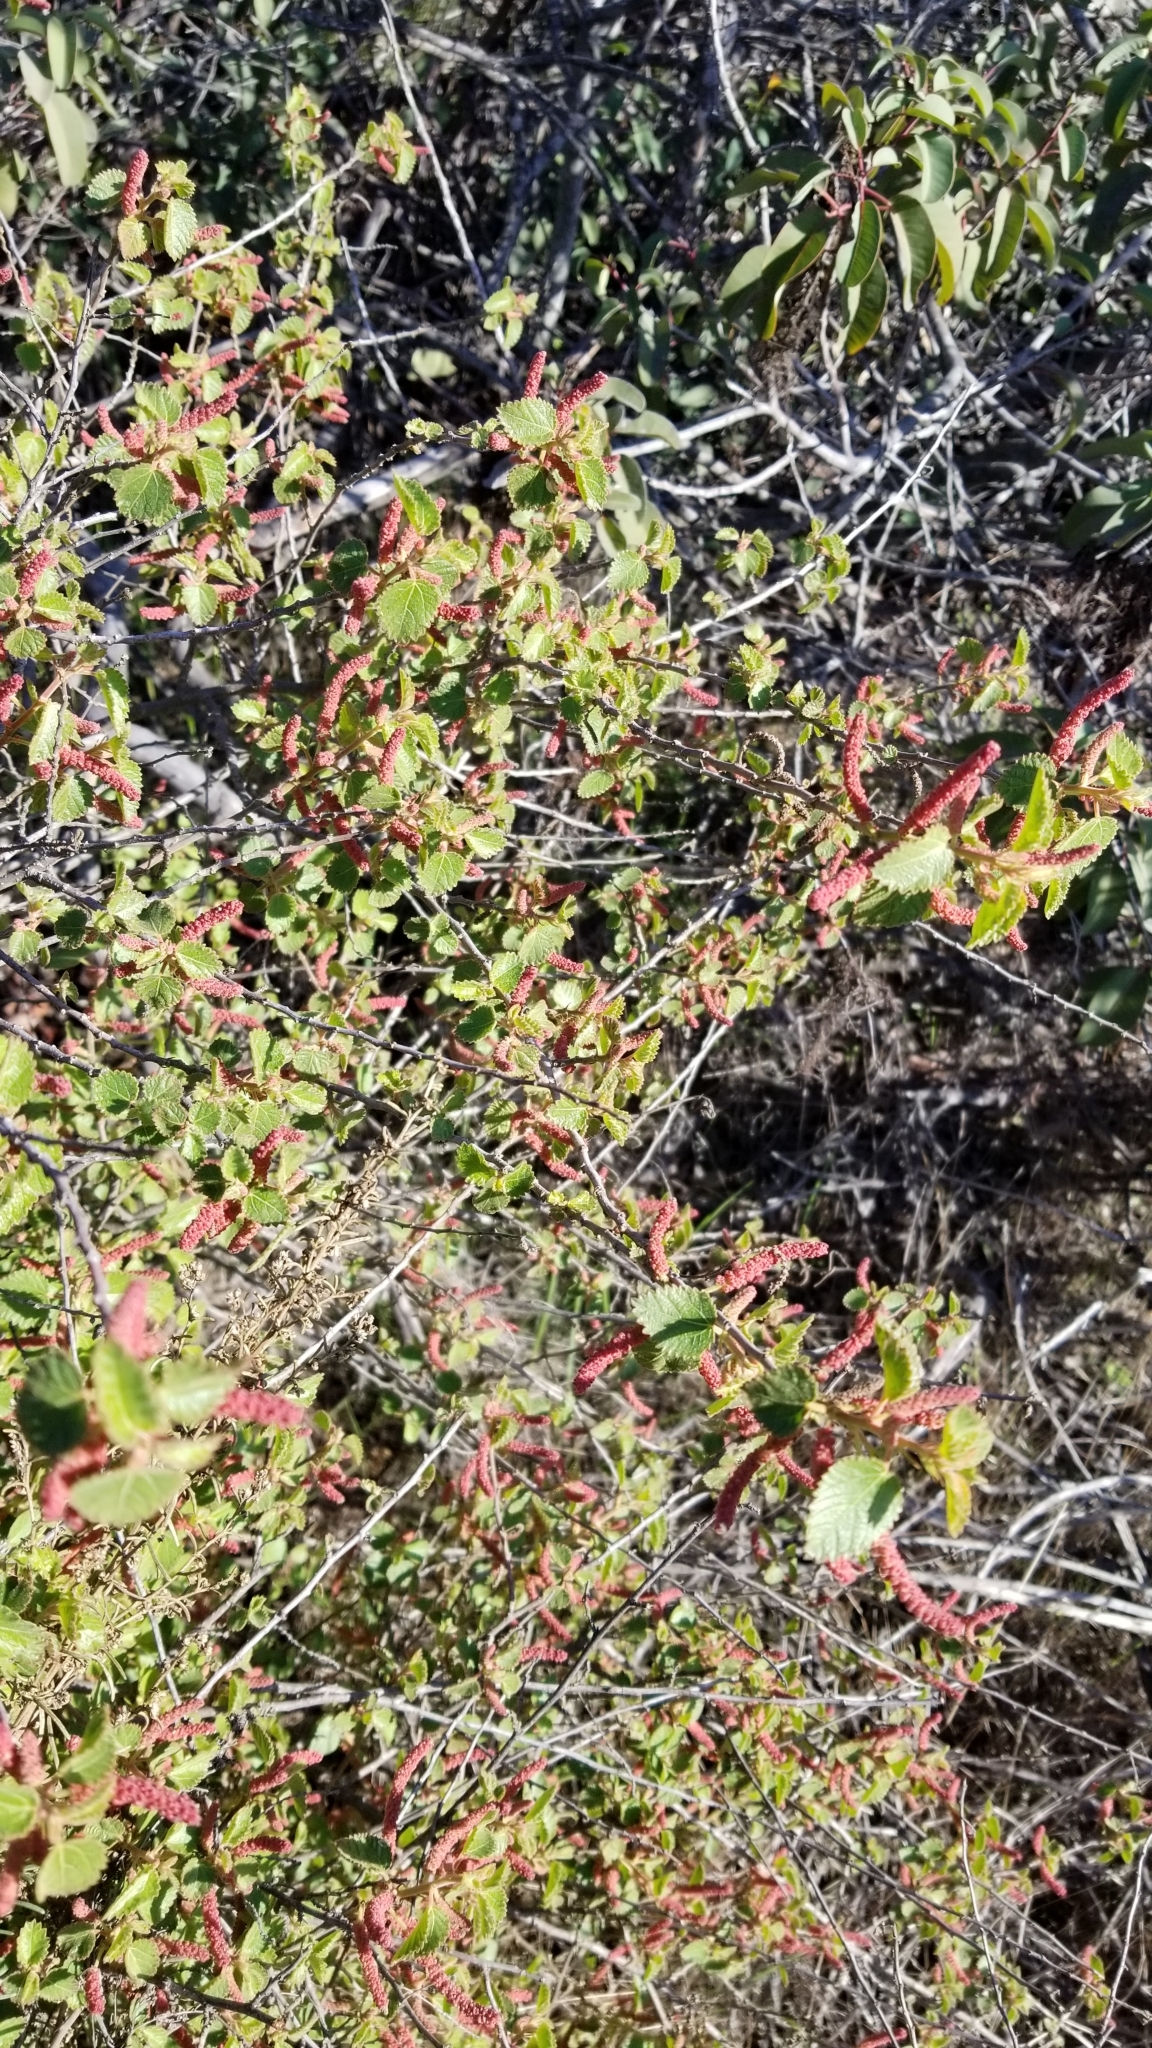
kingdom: Plantae
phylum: Tracheophyta
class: Magnoliopsida
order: Malpighiales
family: Euphorbiaceae
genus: Acalypha
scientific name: Acalypha californica
